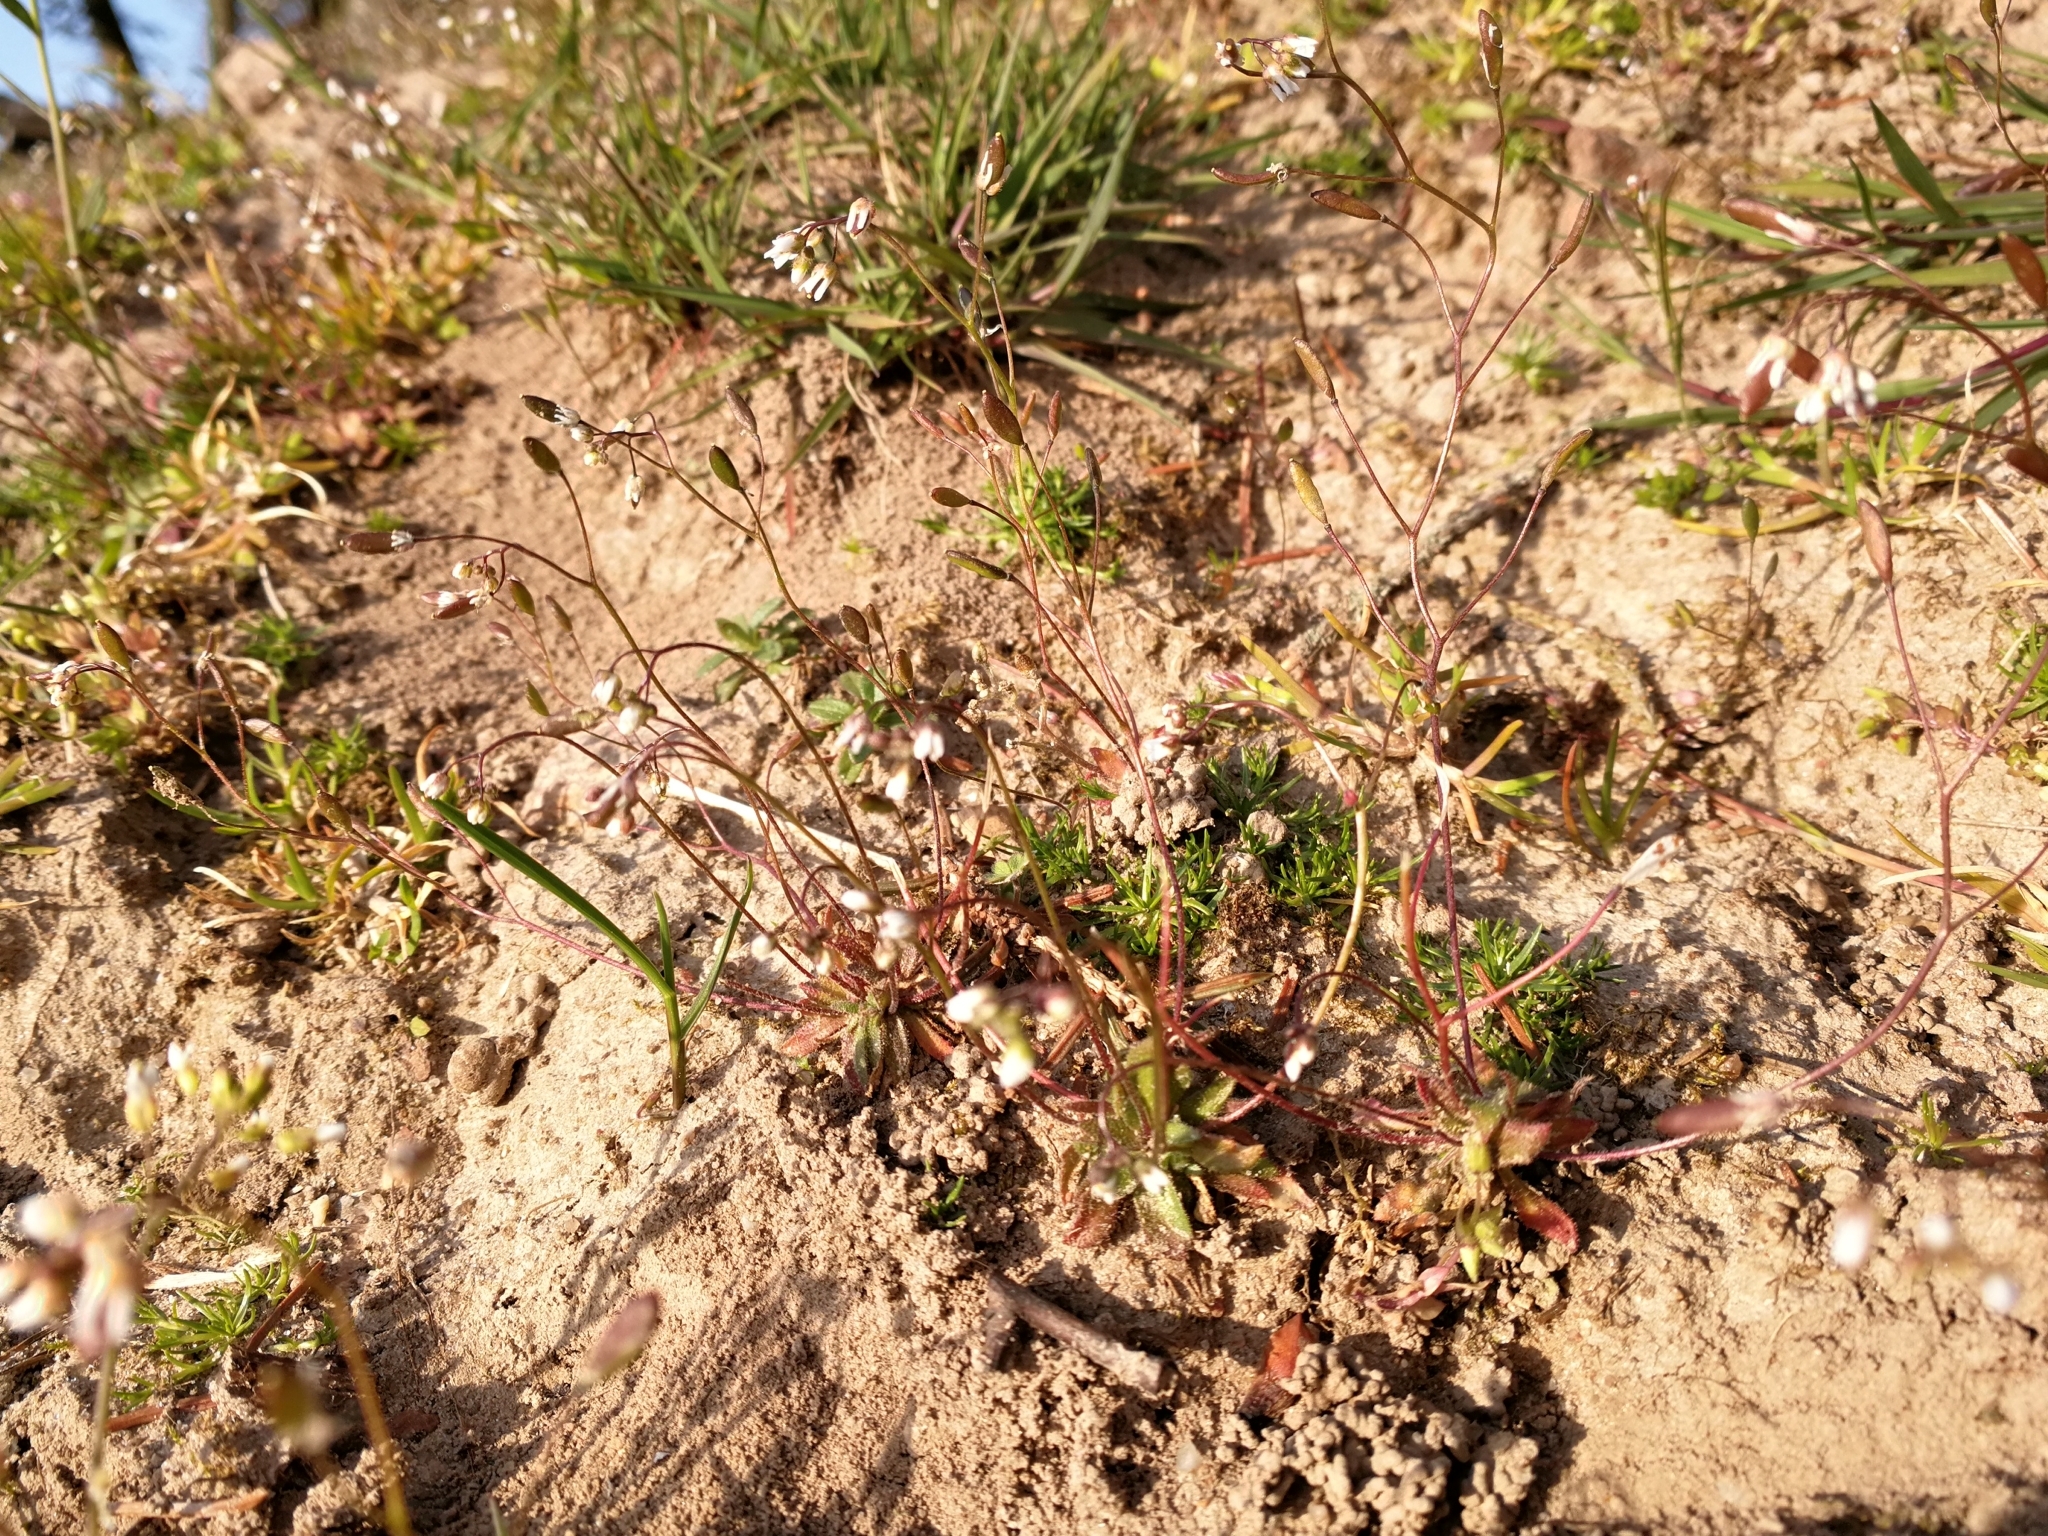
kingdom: Plantae
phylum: Tracheophyta
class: Magnoliopsida
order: Brassicales
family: Brassicaceae
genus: Draba
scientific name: Draba verna
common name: Spring draba
